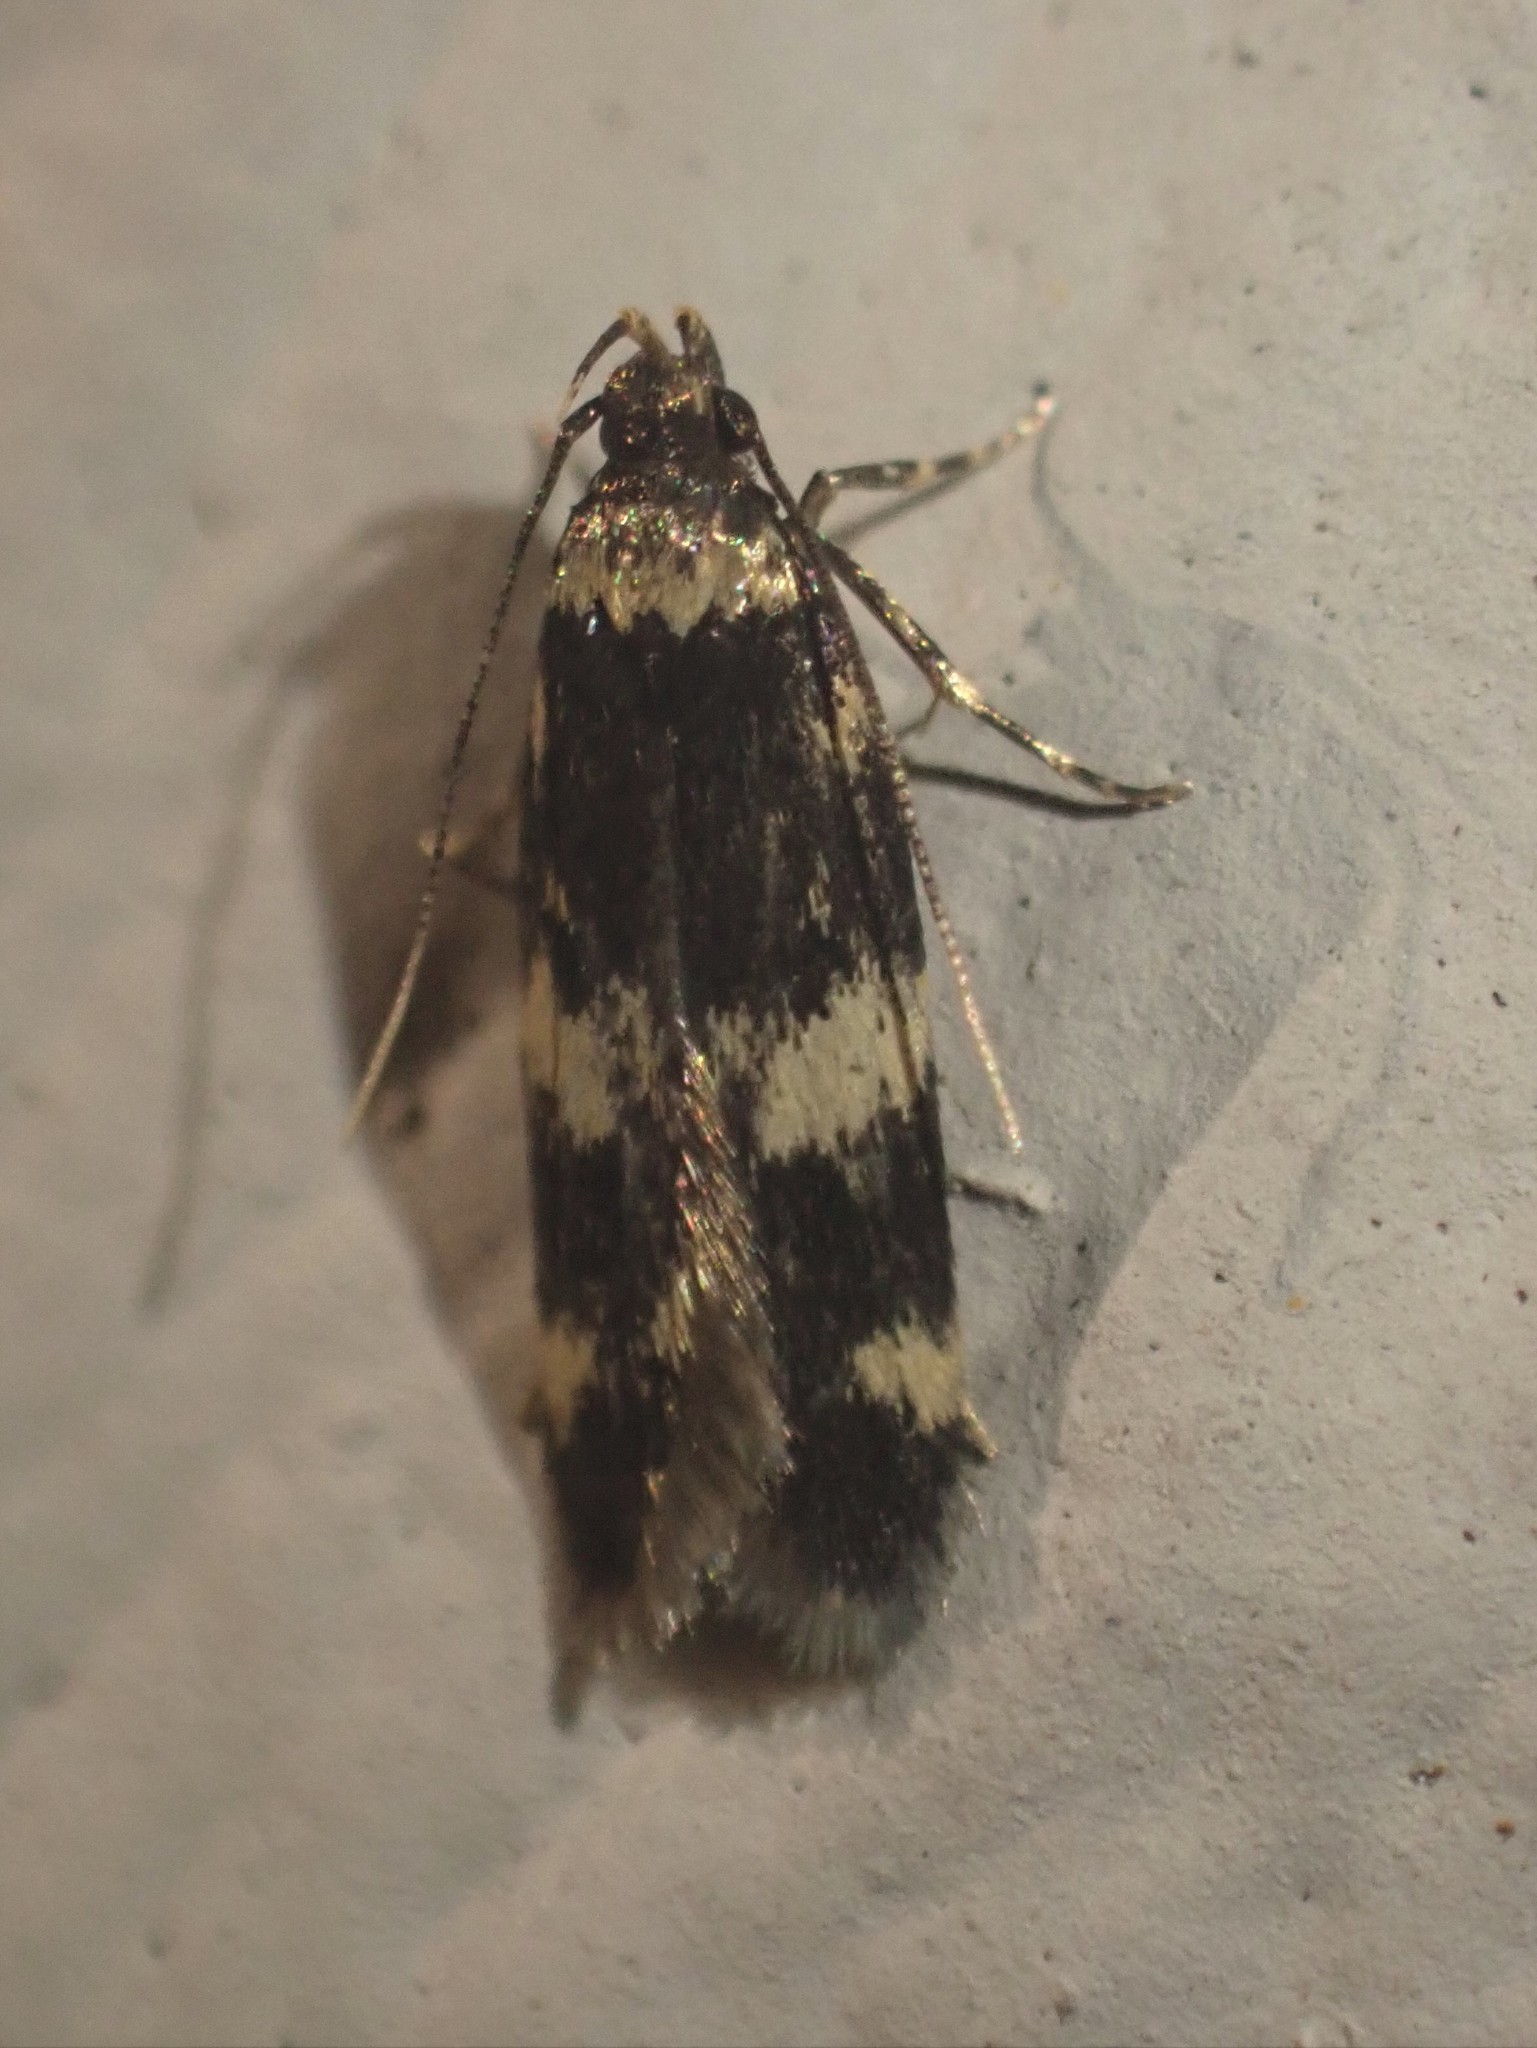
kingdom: Animalia
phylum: Arthropoda
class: Insecta
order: Lepidoptera
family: Autostichidae
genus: Oegoconia
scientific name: Oegoconia quadripuncta
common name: Four-spotted obscure
